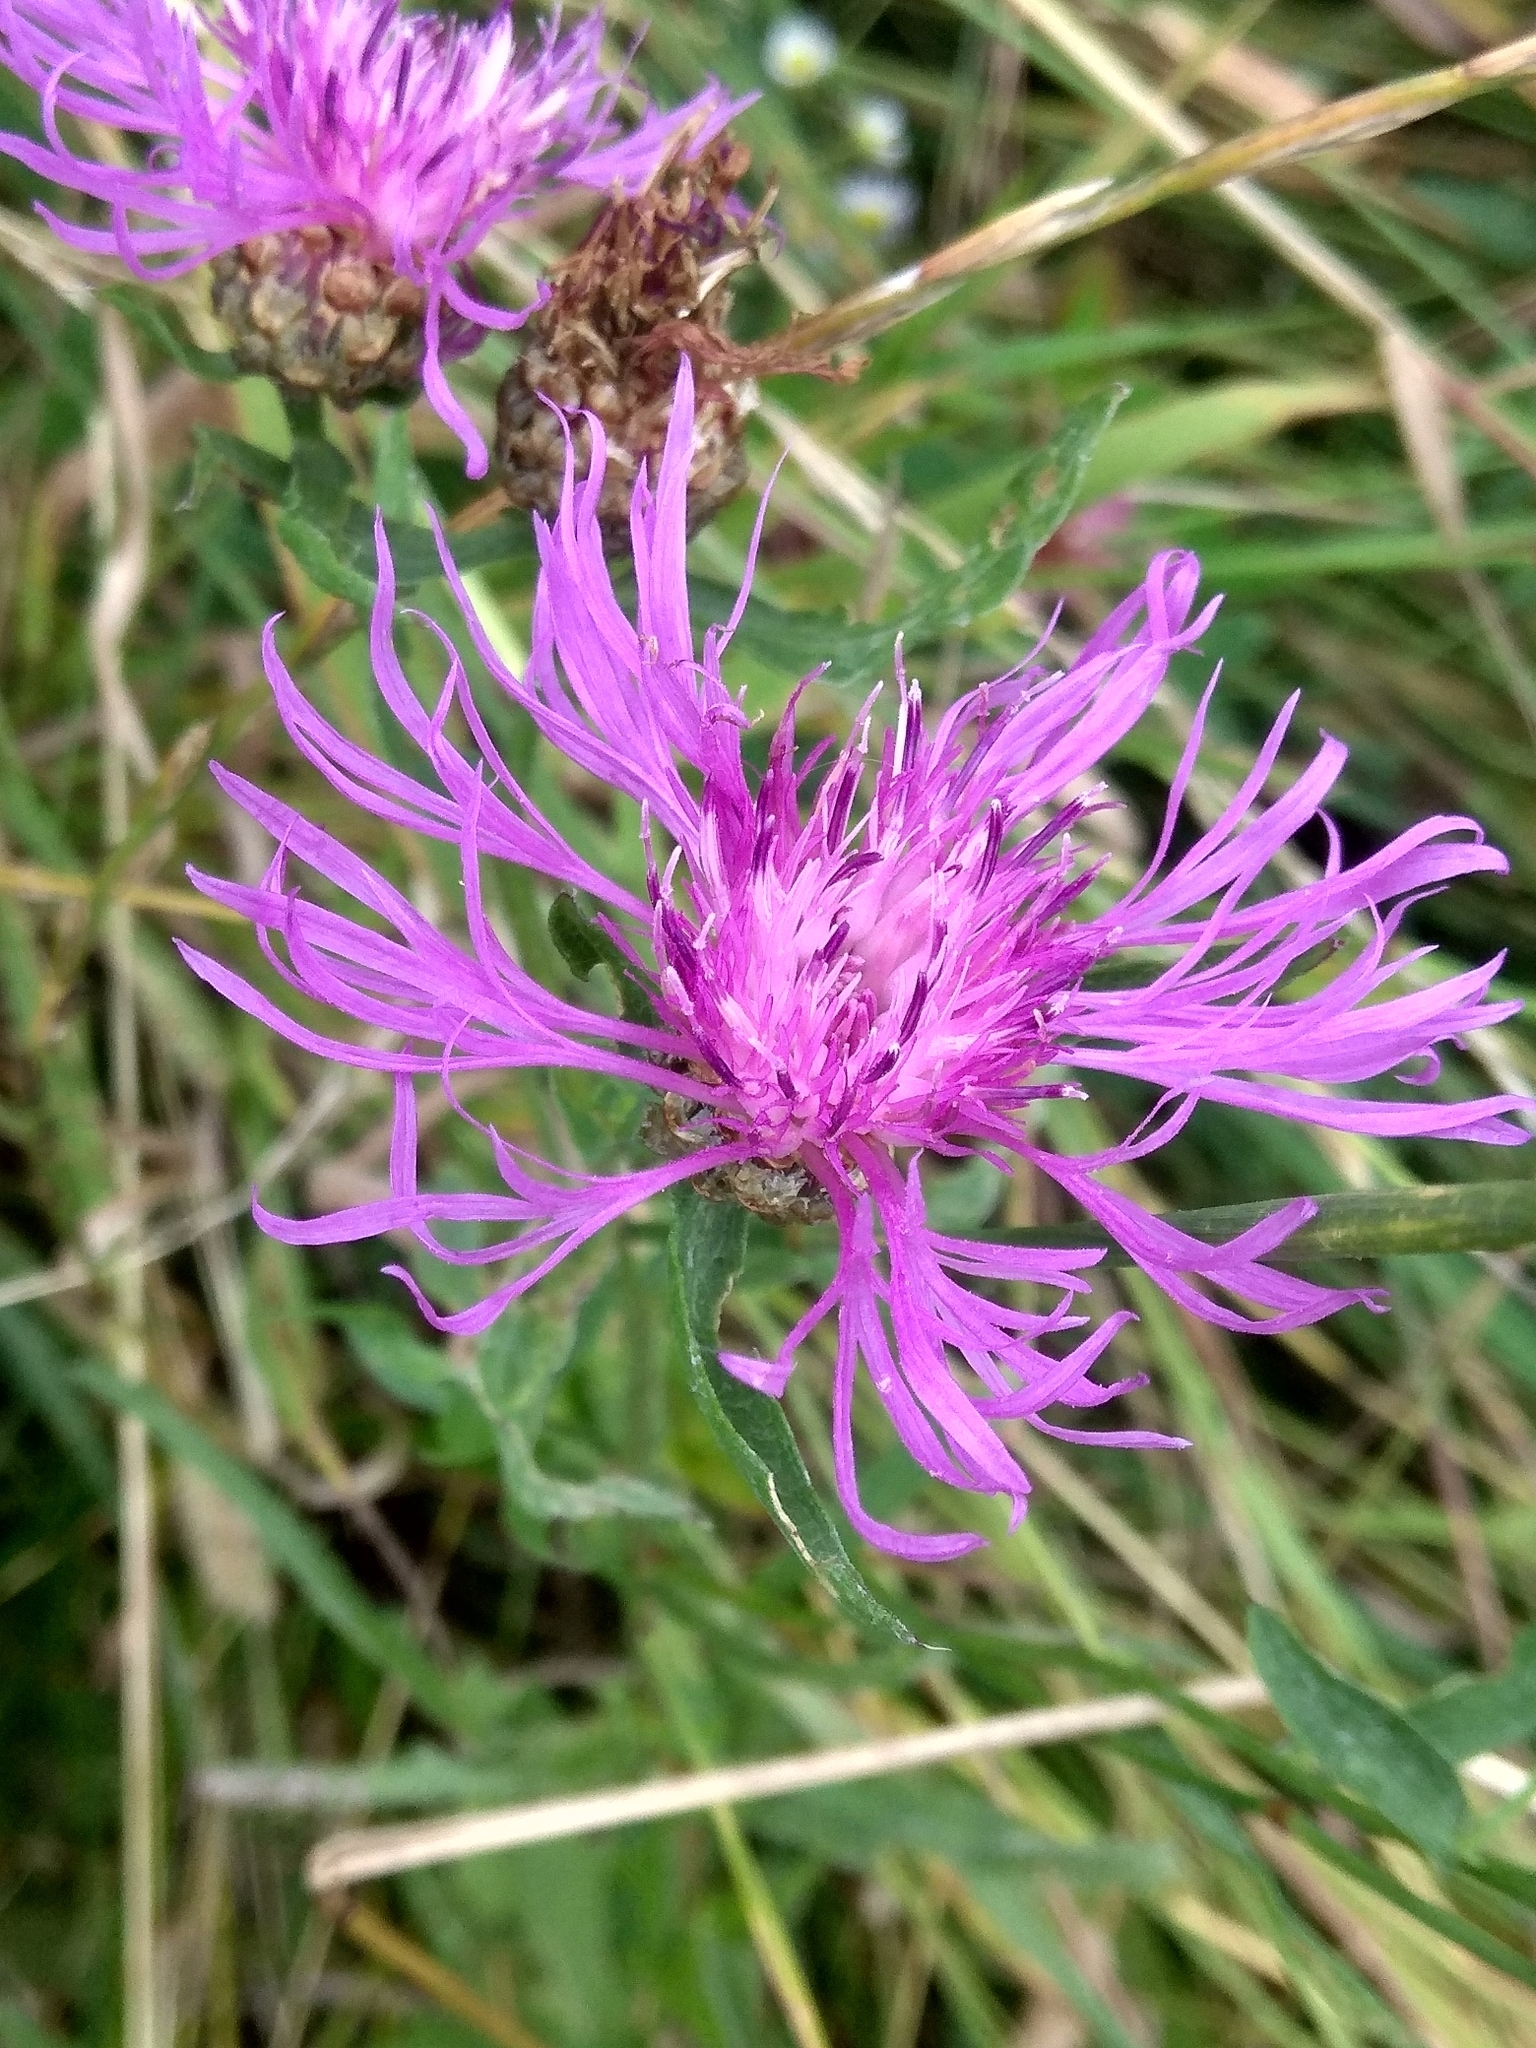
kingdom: Plantae
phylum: Tracheophyta
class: Magnoliopsida
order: Asterales
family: Asteraceae
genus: Centaurea
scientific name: Centaurea jacea
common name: Brown knapweed
